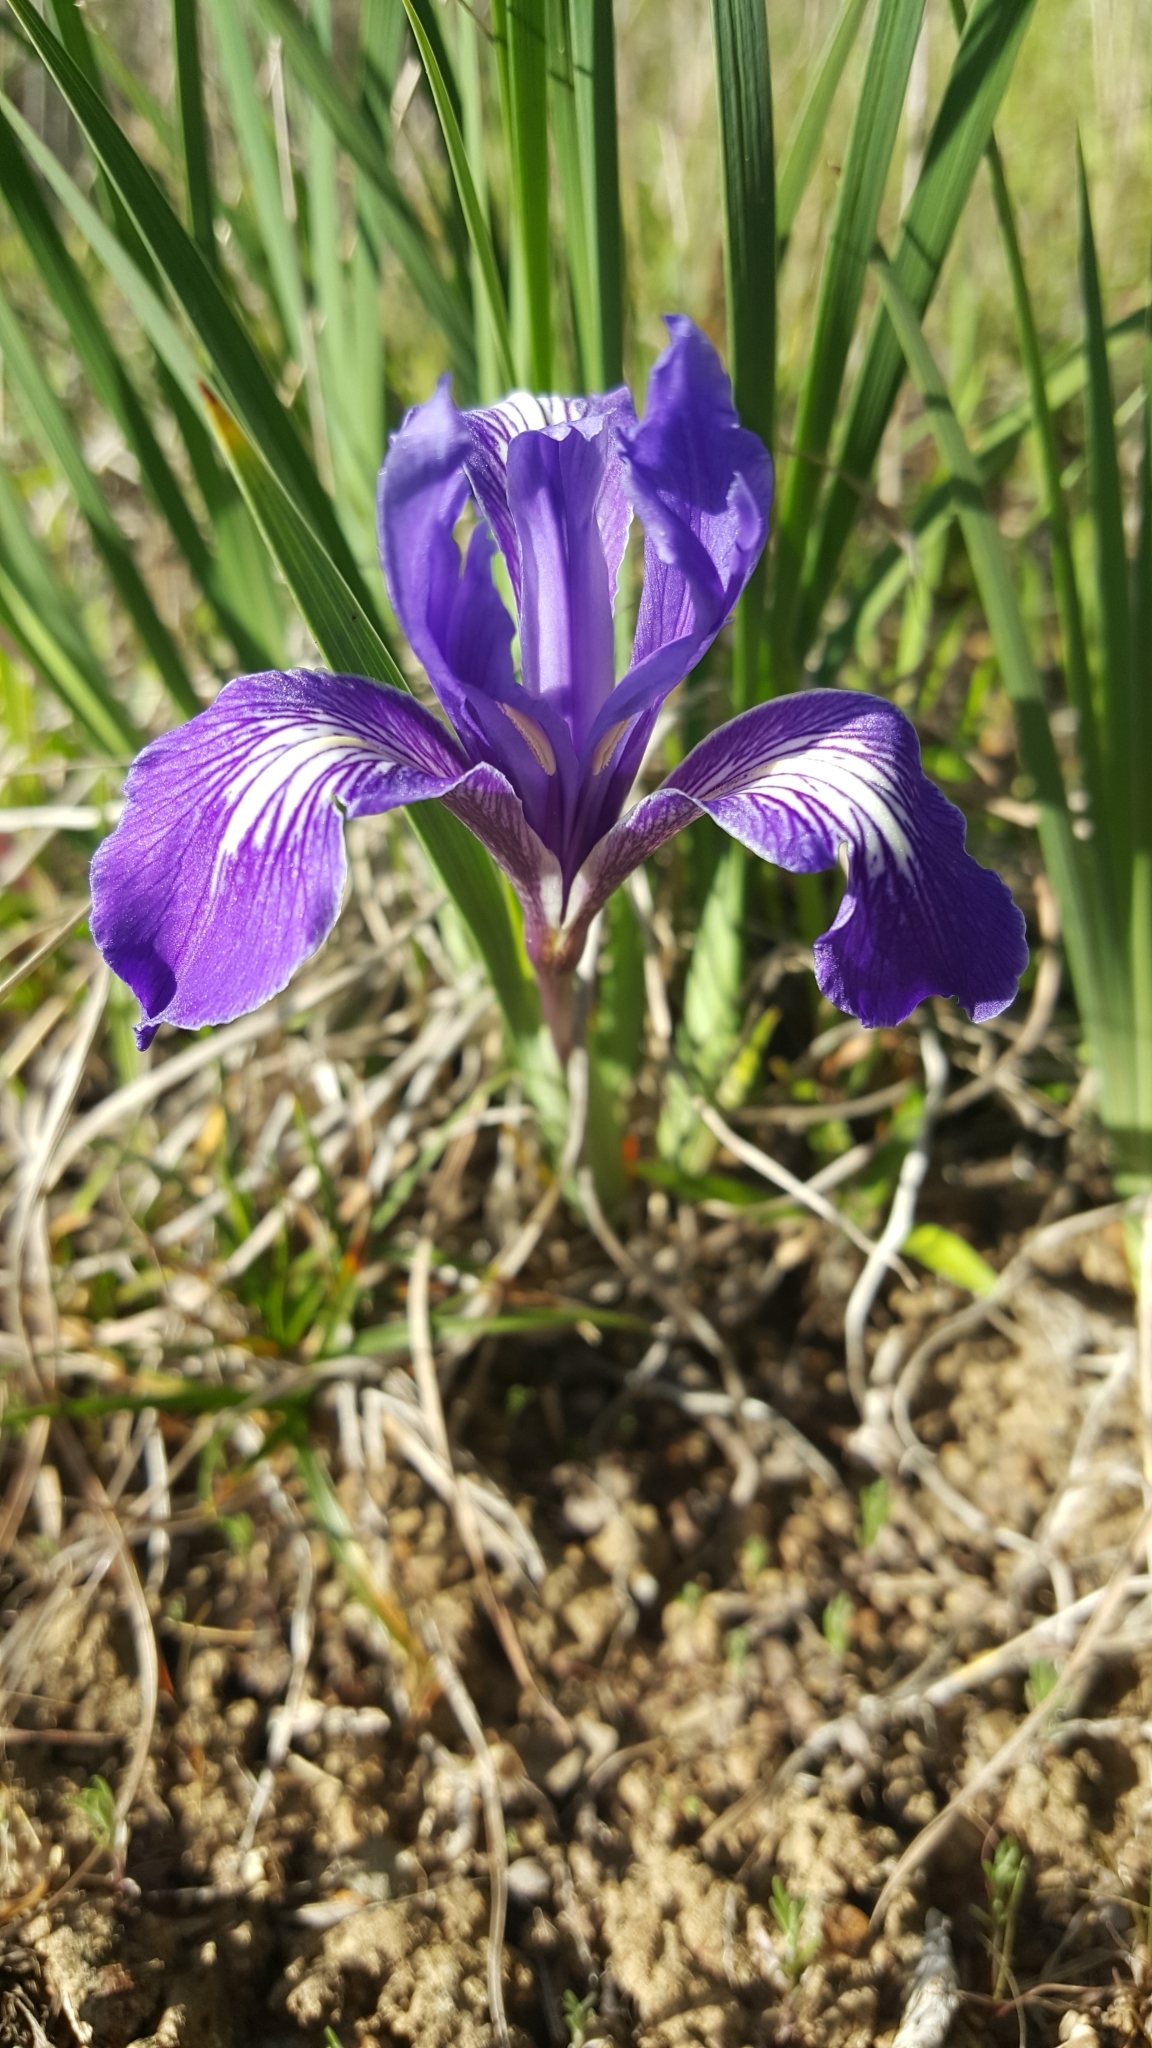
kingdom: Plantae
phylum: Tracheophyta
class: Liliopsida
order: Asparagales
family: Iridaceae
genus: Iris
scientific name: Iris macrosiphon
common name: Ground iris
